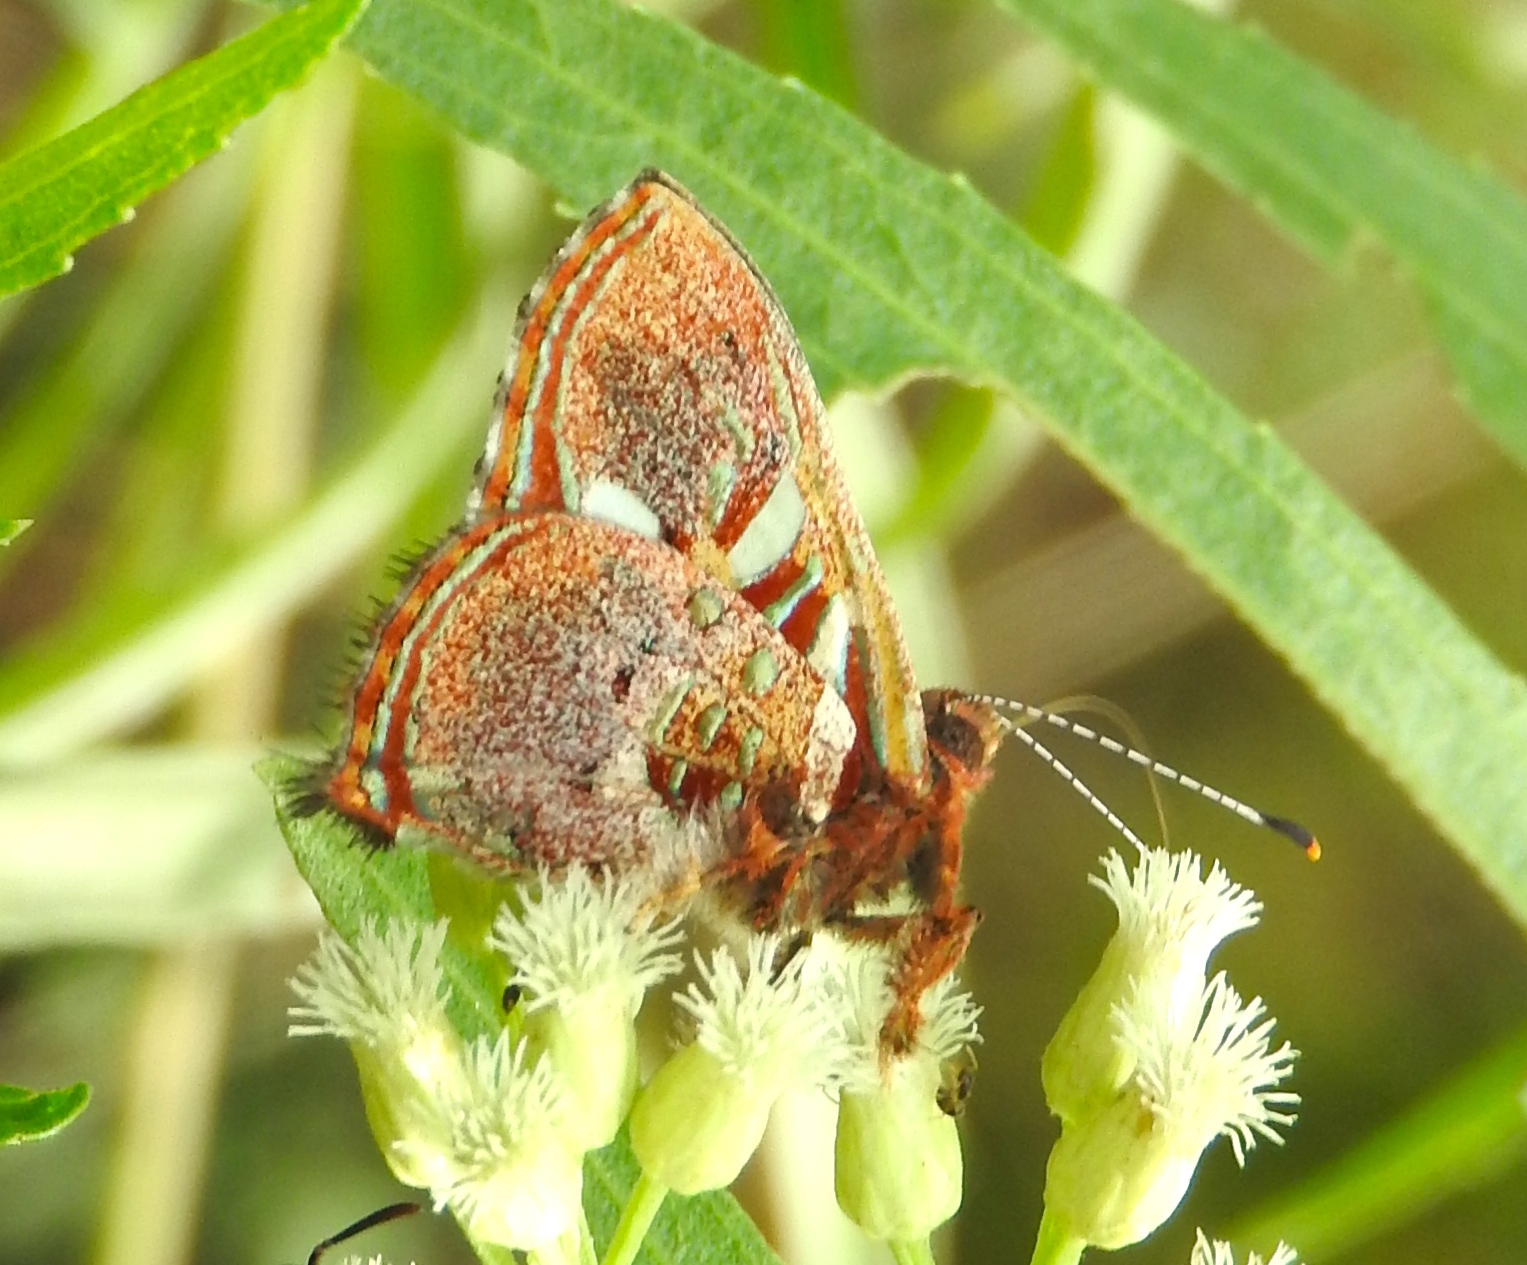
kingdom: Animalia
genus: Anteros
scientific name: Anteros carausius
